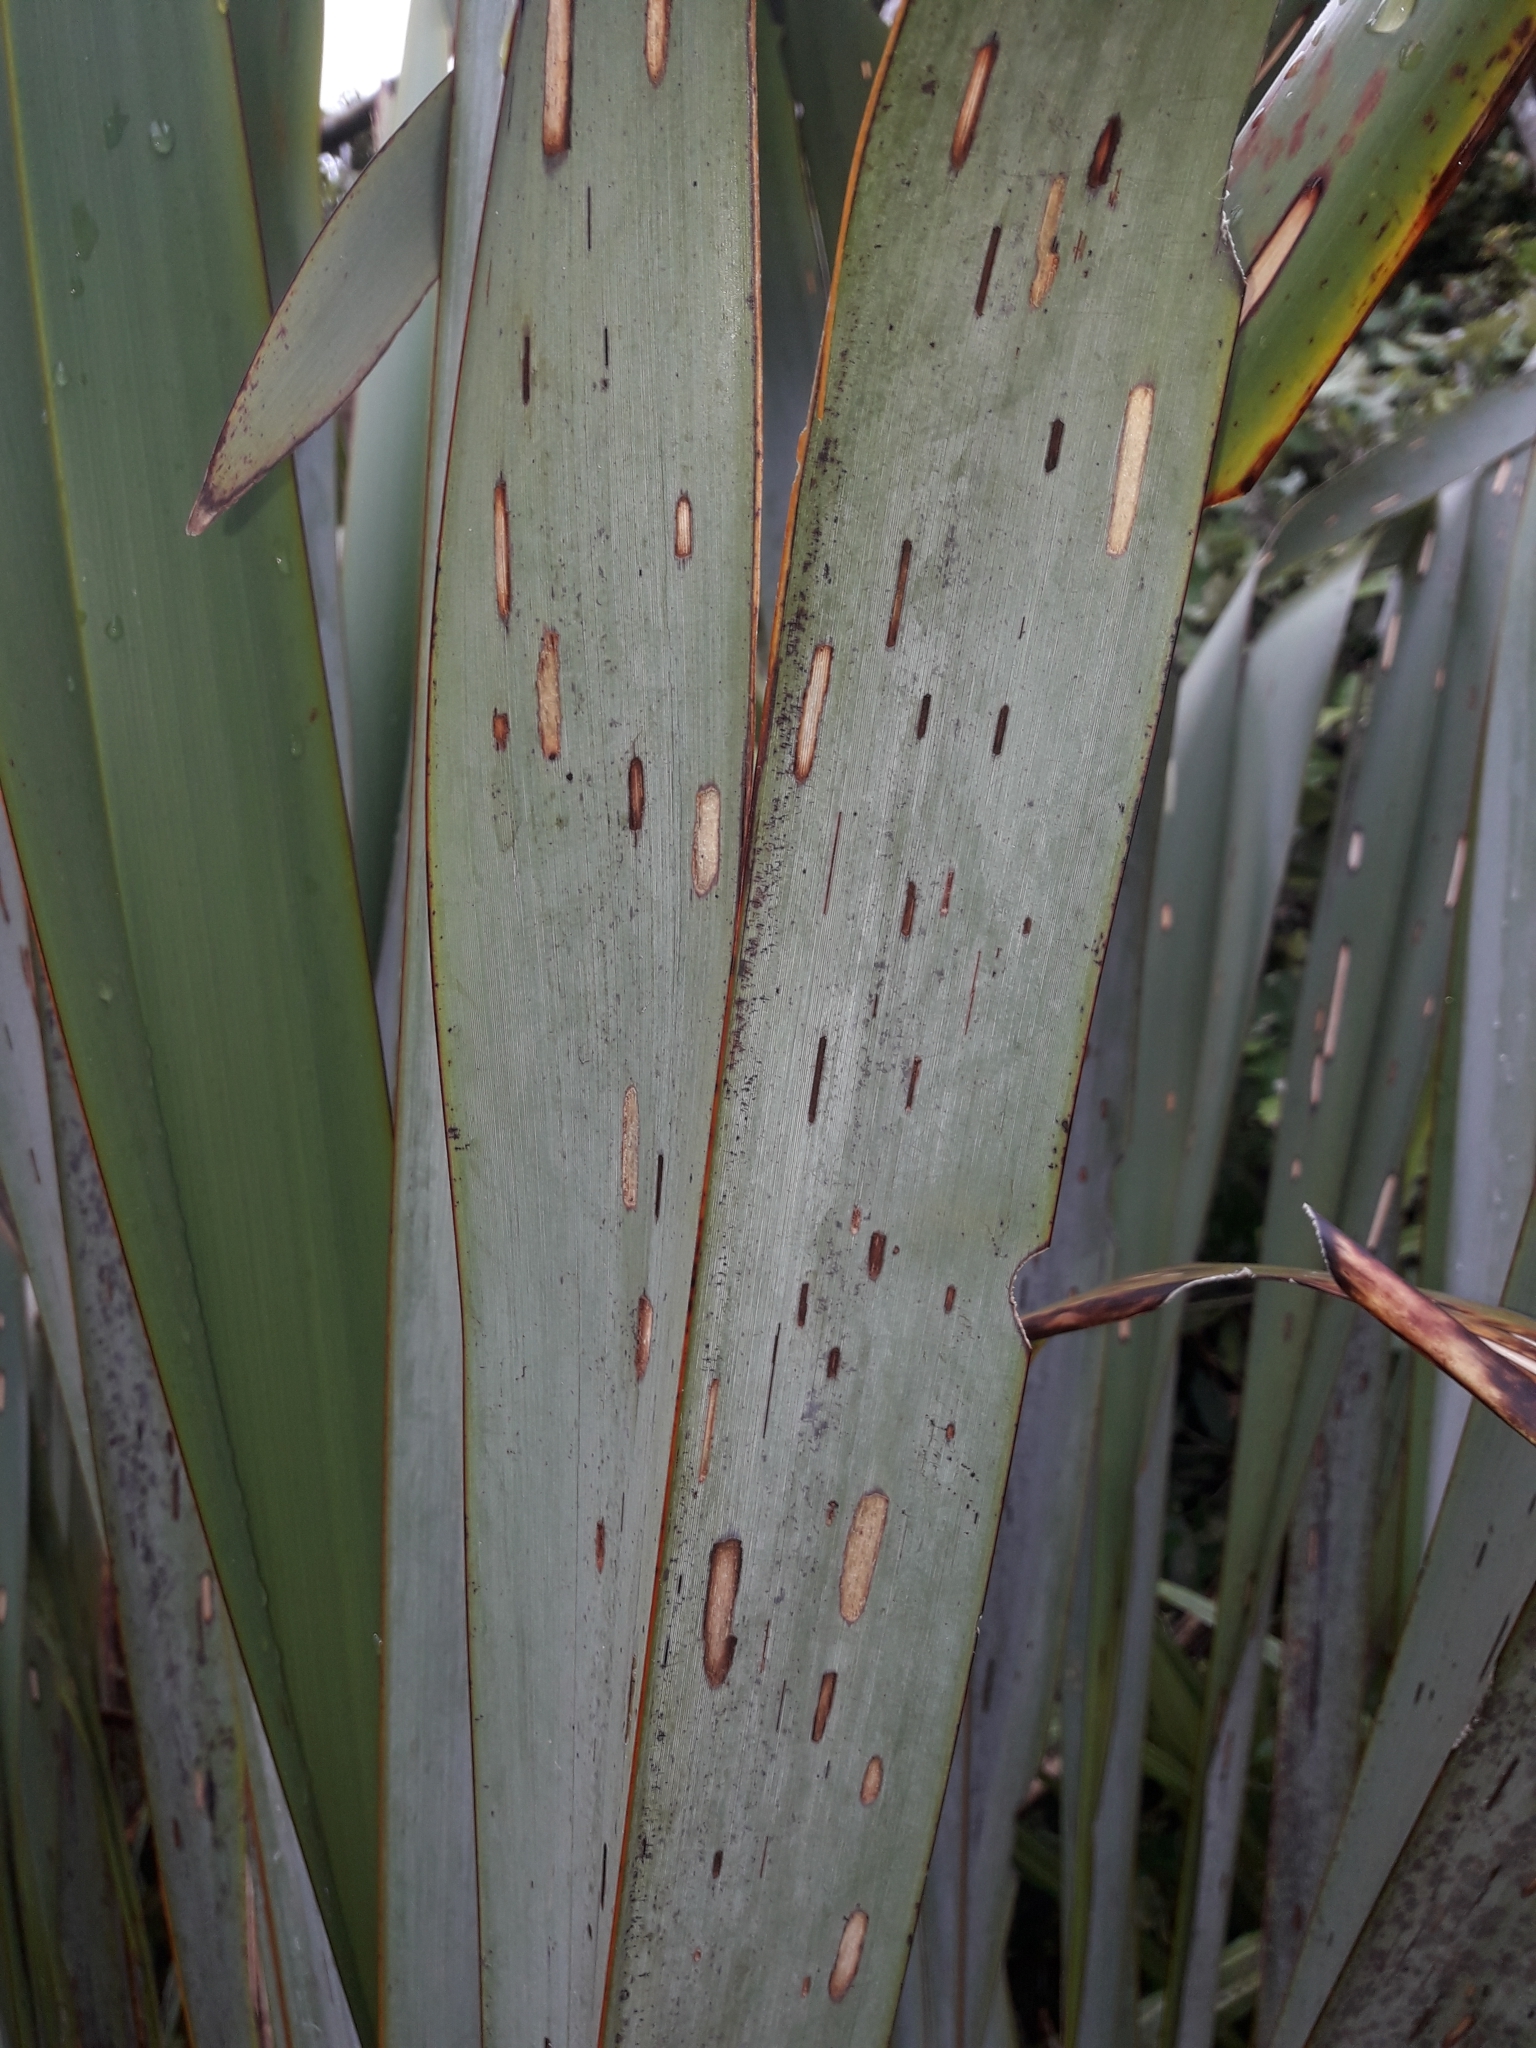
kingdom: Animalia
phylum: Arthropoda
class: Insecta
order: Lepidoptera
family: Geometridae
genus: Orthoclydon
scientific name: Orthoclydon praefectata
